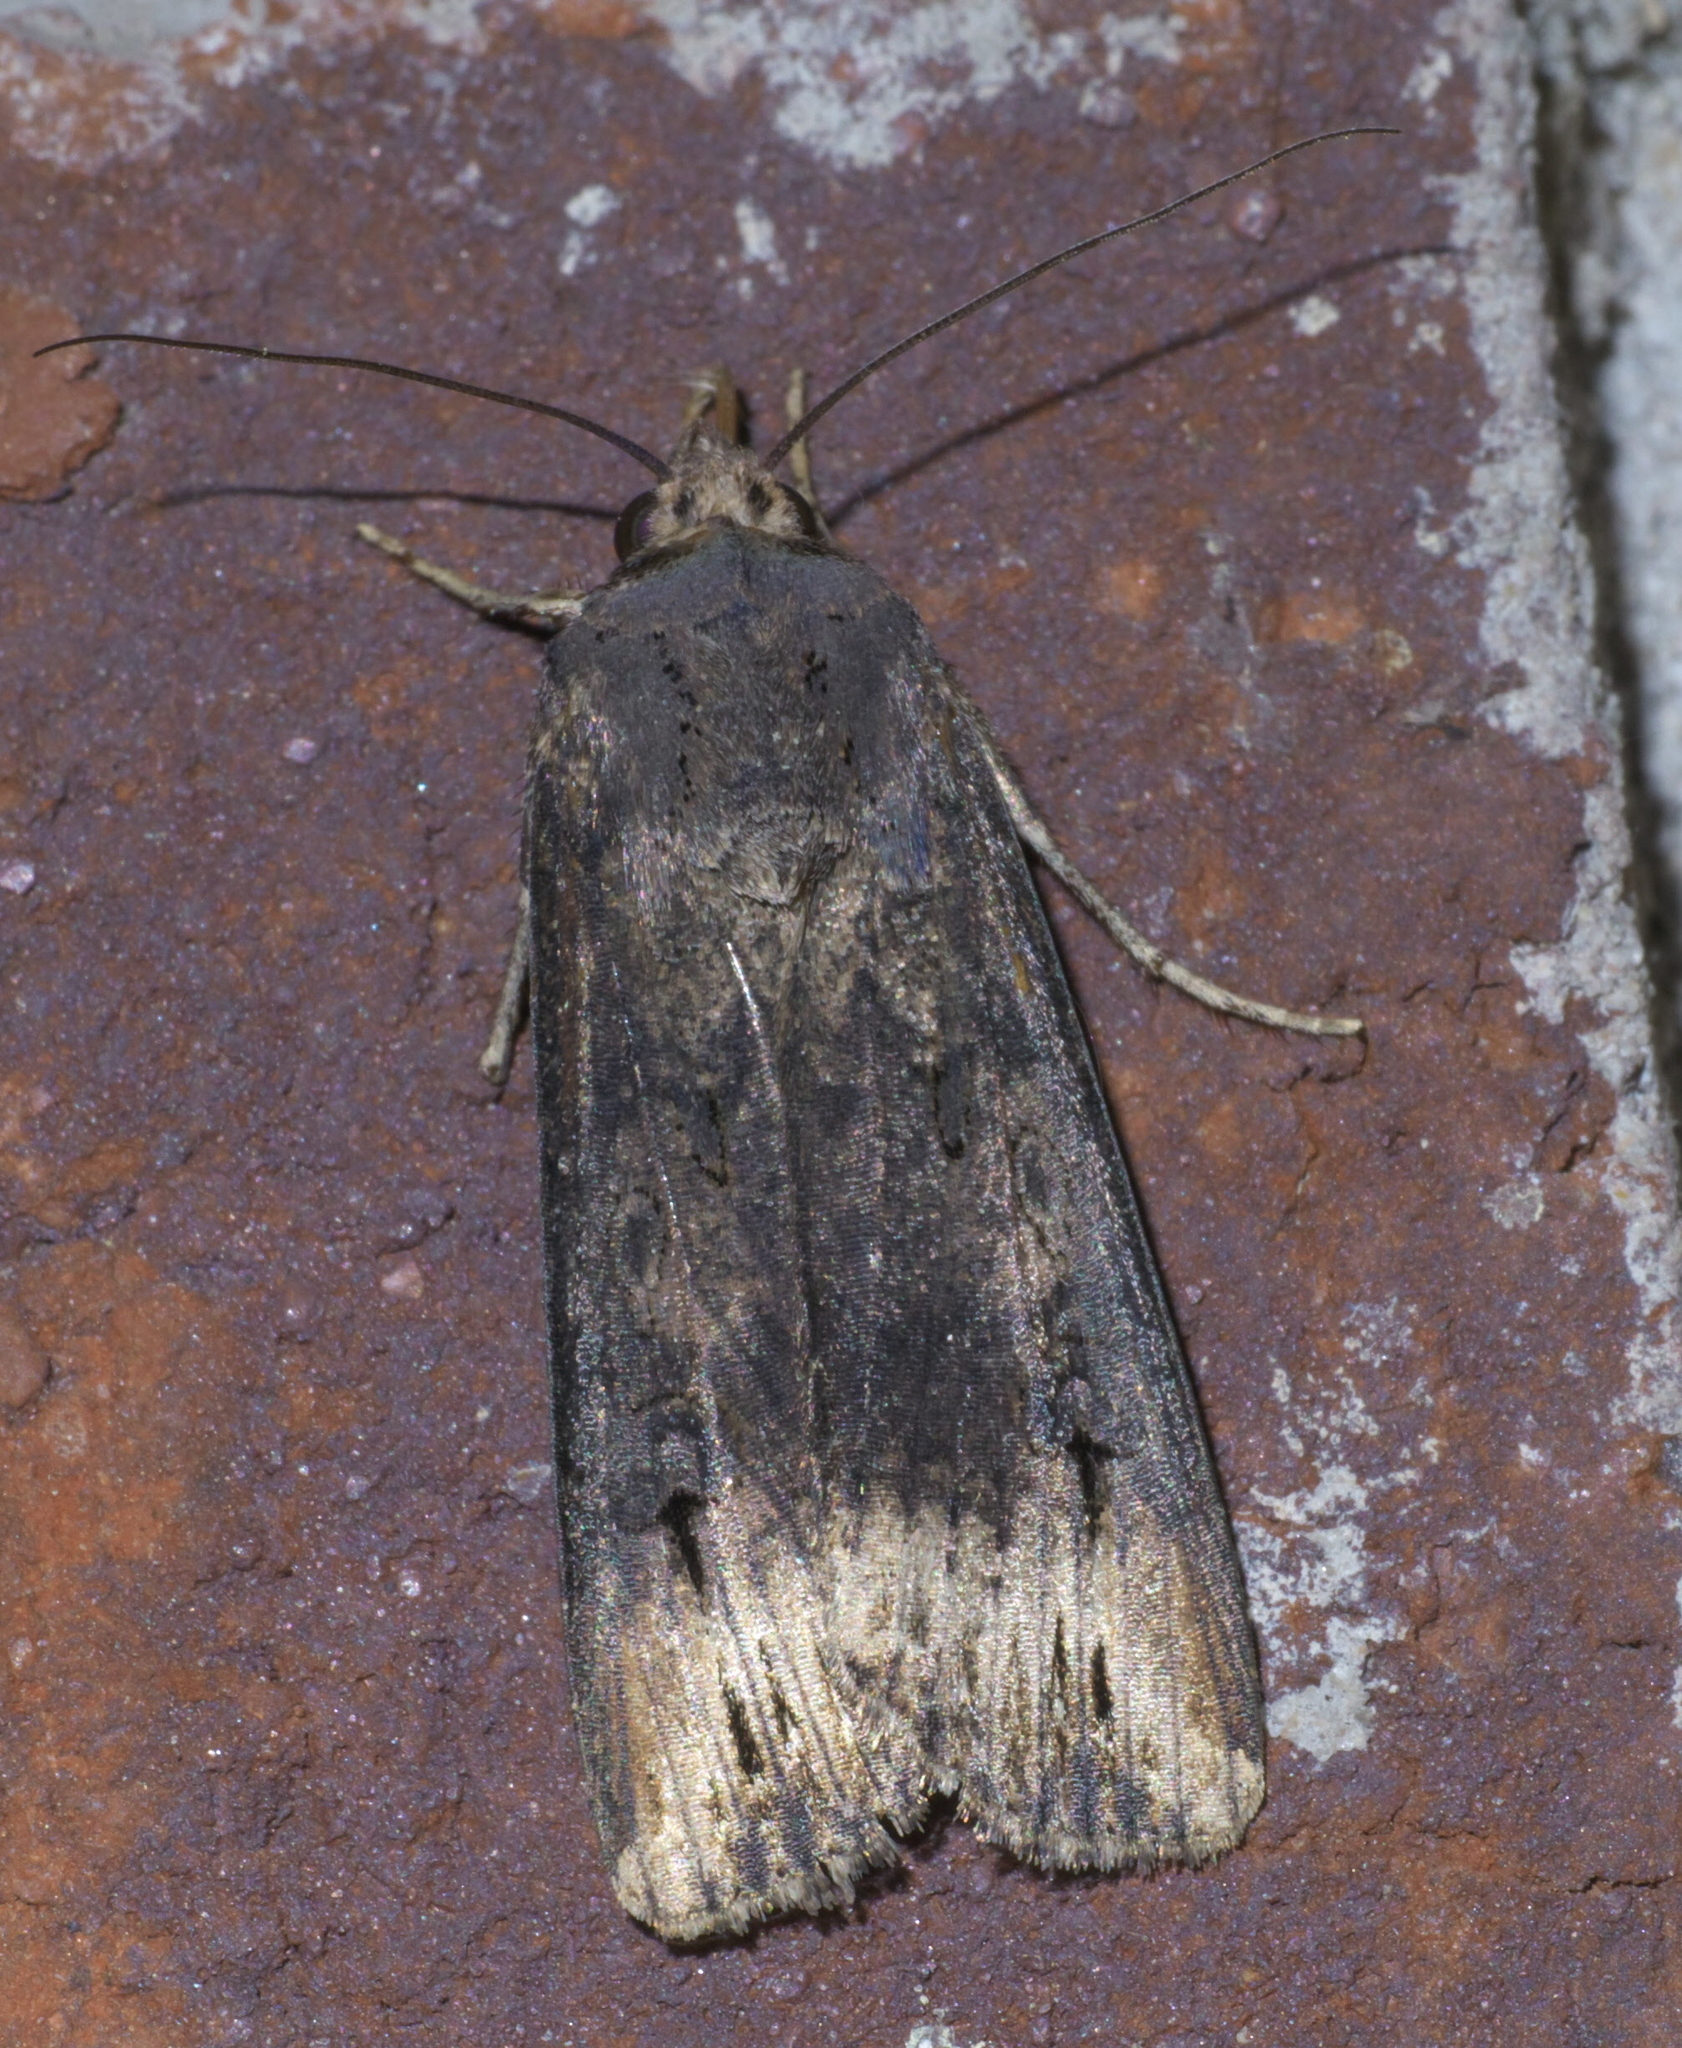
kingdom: Animalia
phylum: Arthropoda
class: Insecta
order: Lepidoptera
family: Noctuidae
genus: Agrotis
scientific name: Agrotis ipsilon
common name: Dark sword-grass
